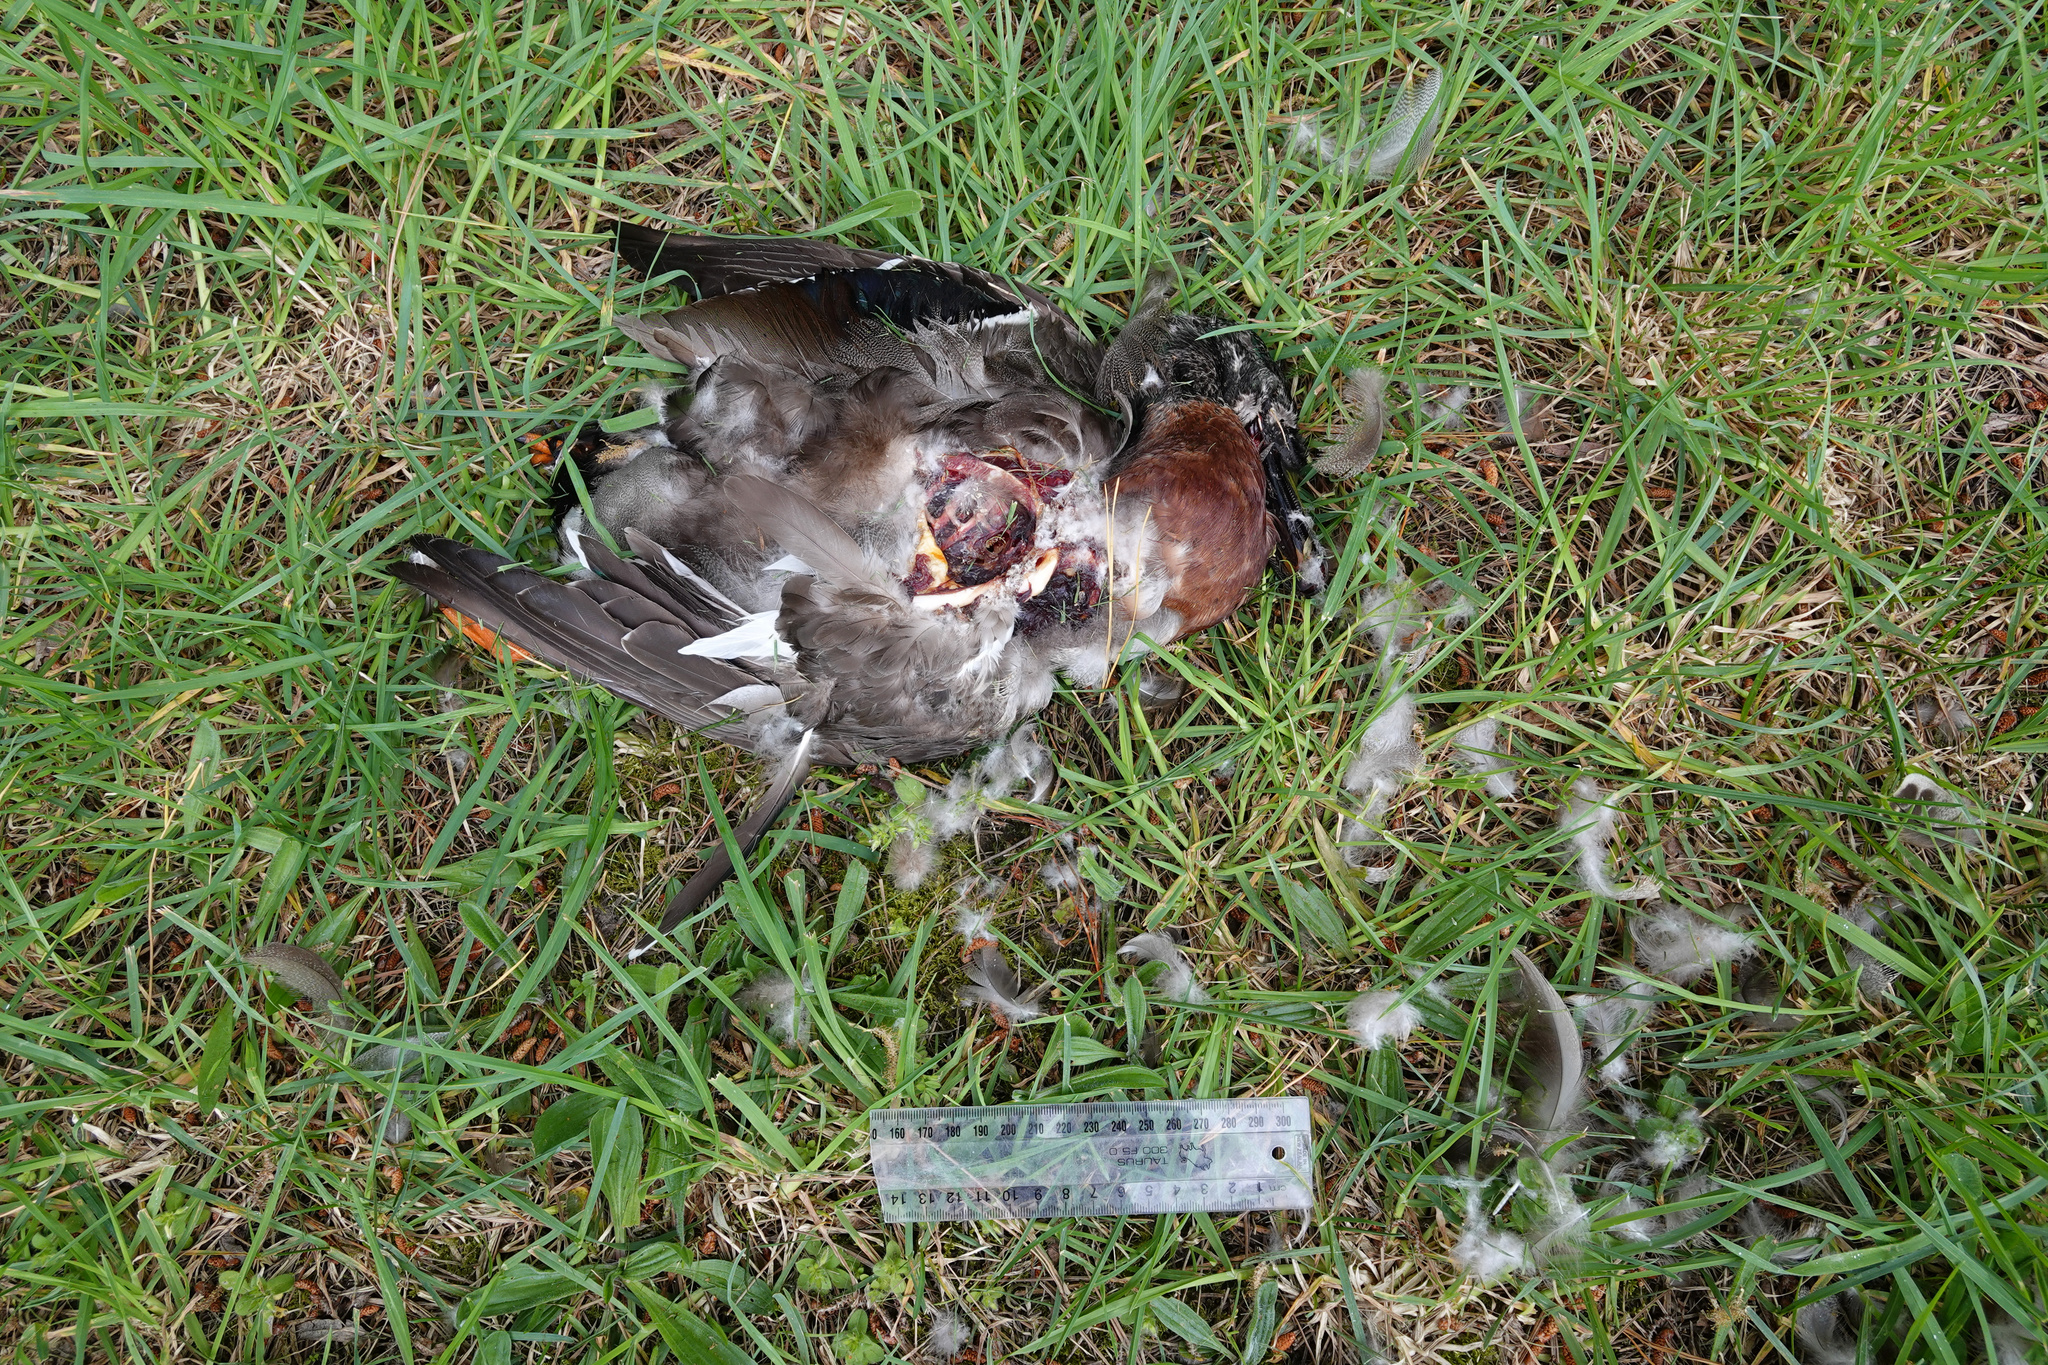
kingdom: Animalia
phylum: Chordata
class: Aves
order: Anseriformes
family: Anatidae
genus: Anas
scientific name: Anas
